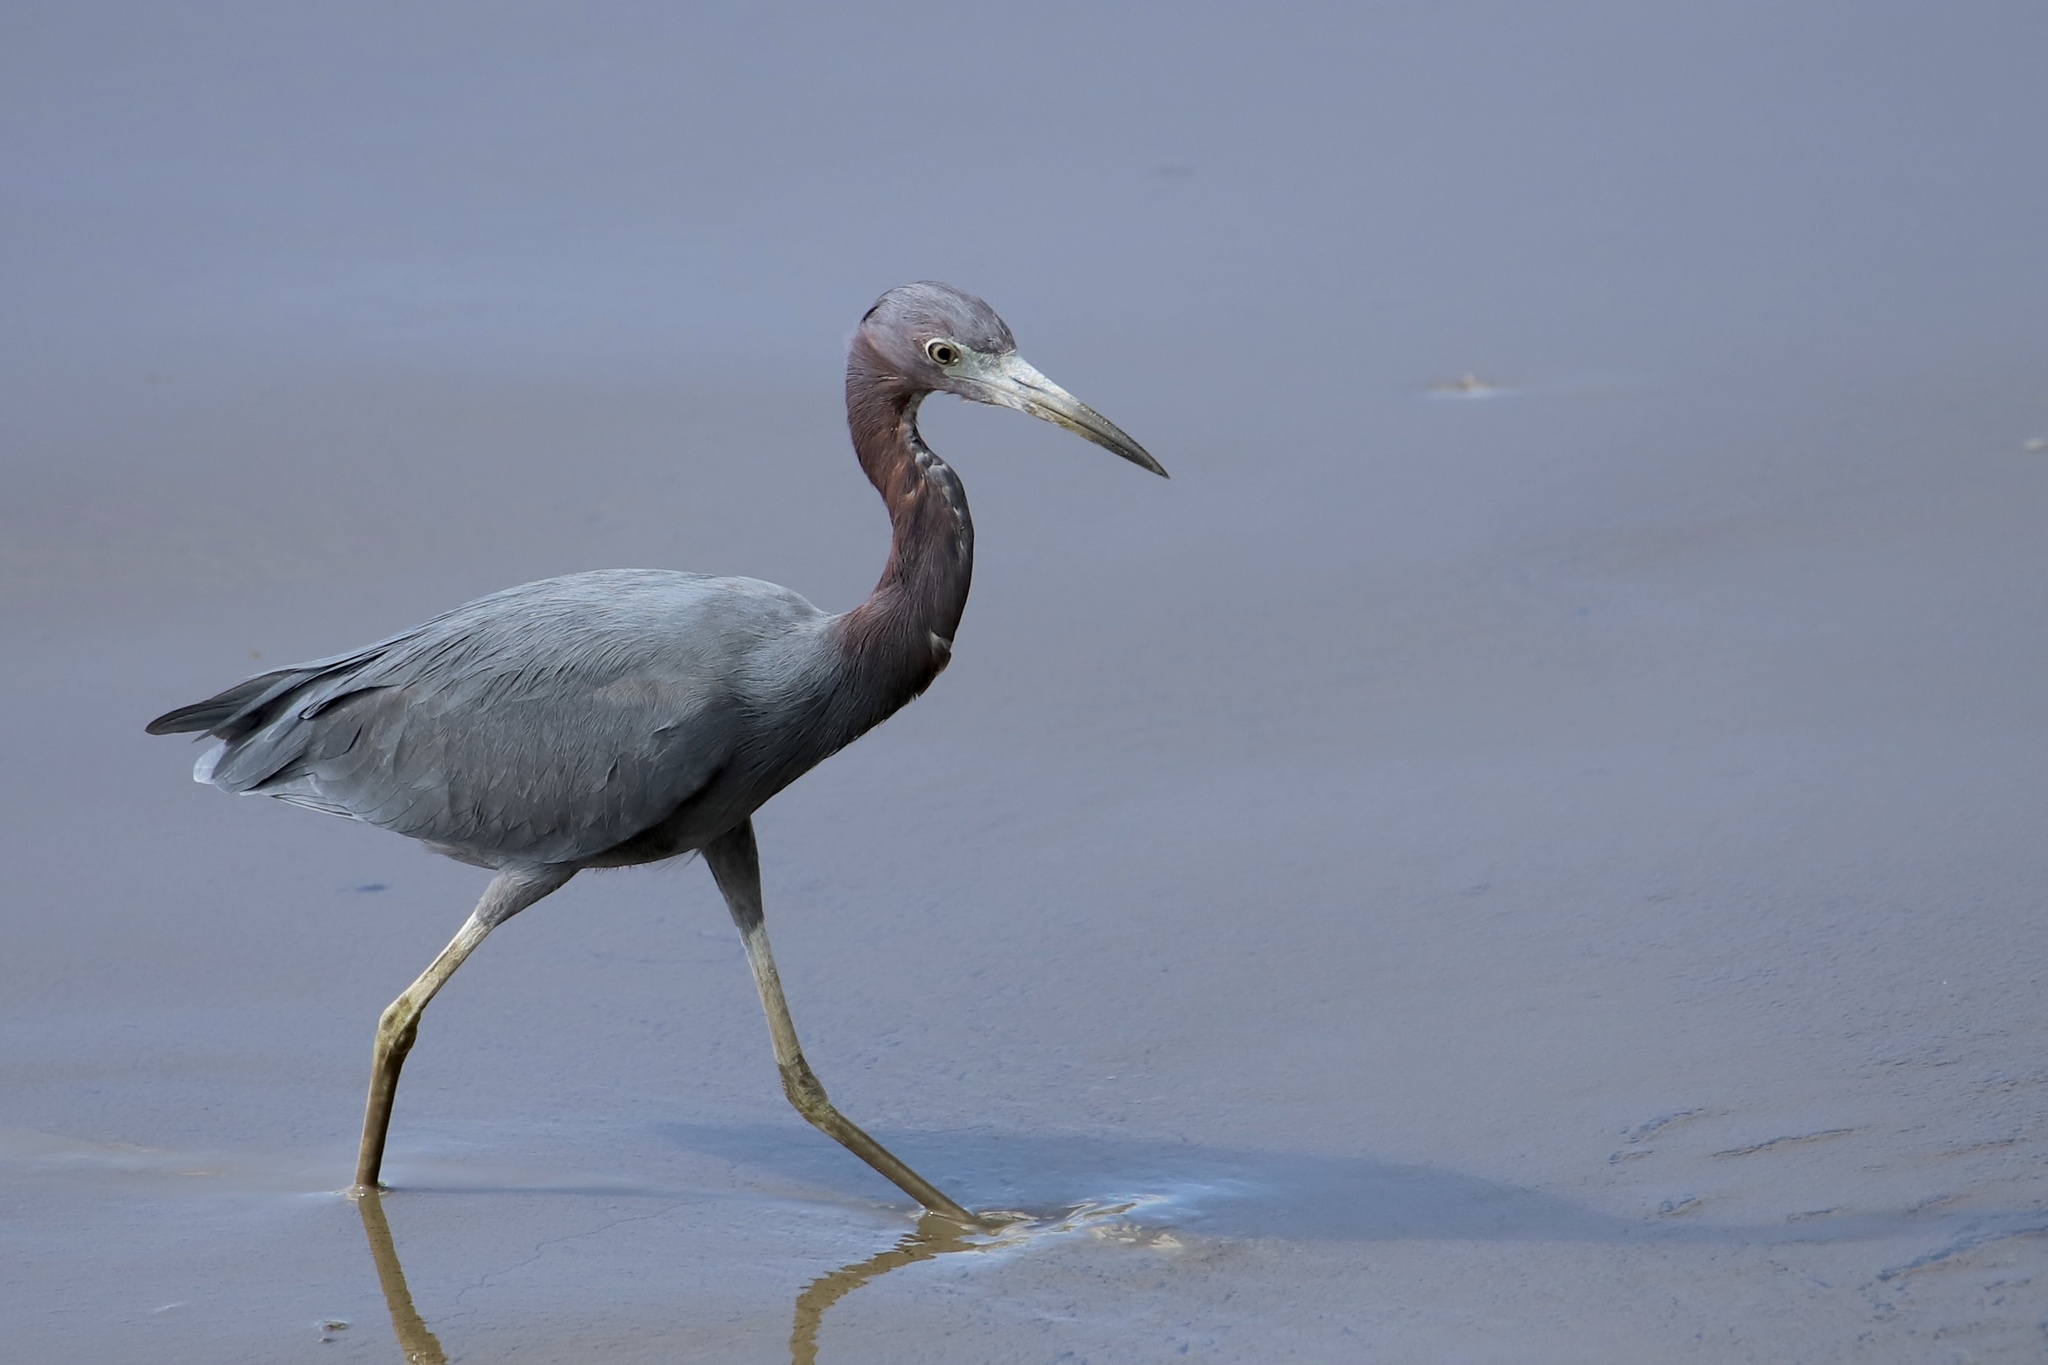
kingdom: Animalia
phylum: Chordata
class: Aves
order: Pelecaniformes
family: Ardeidae
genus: Egretta
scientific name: Egretta caerulea
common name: Little blue heron
